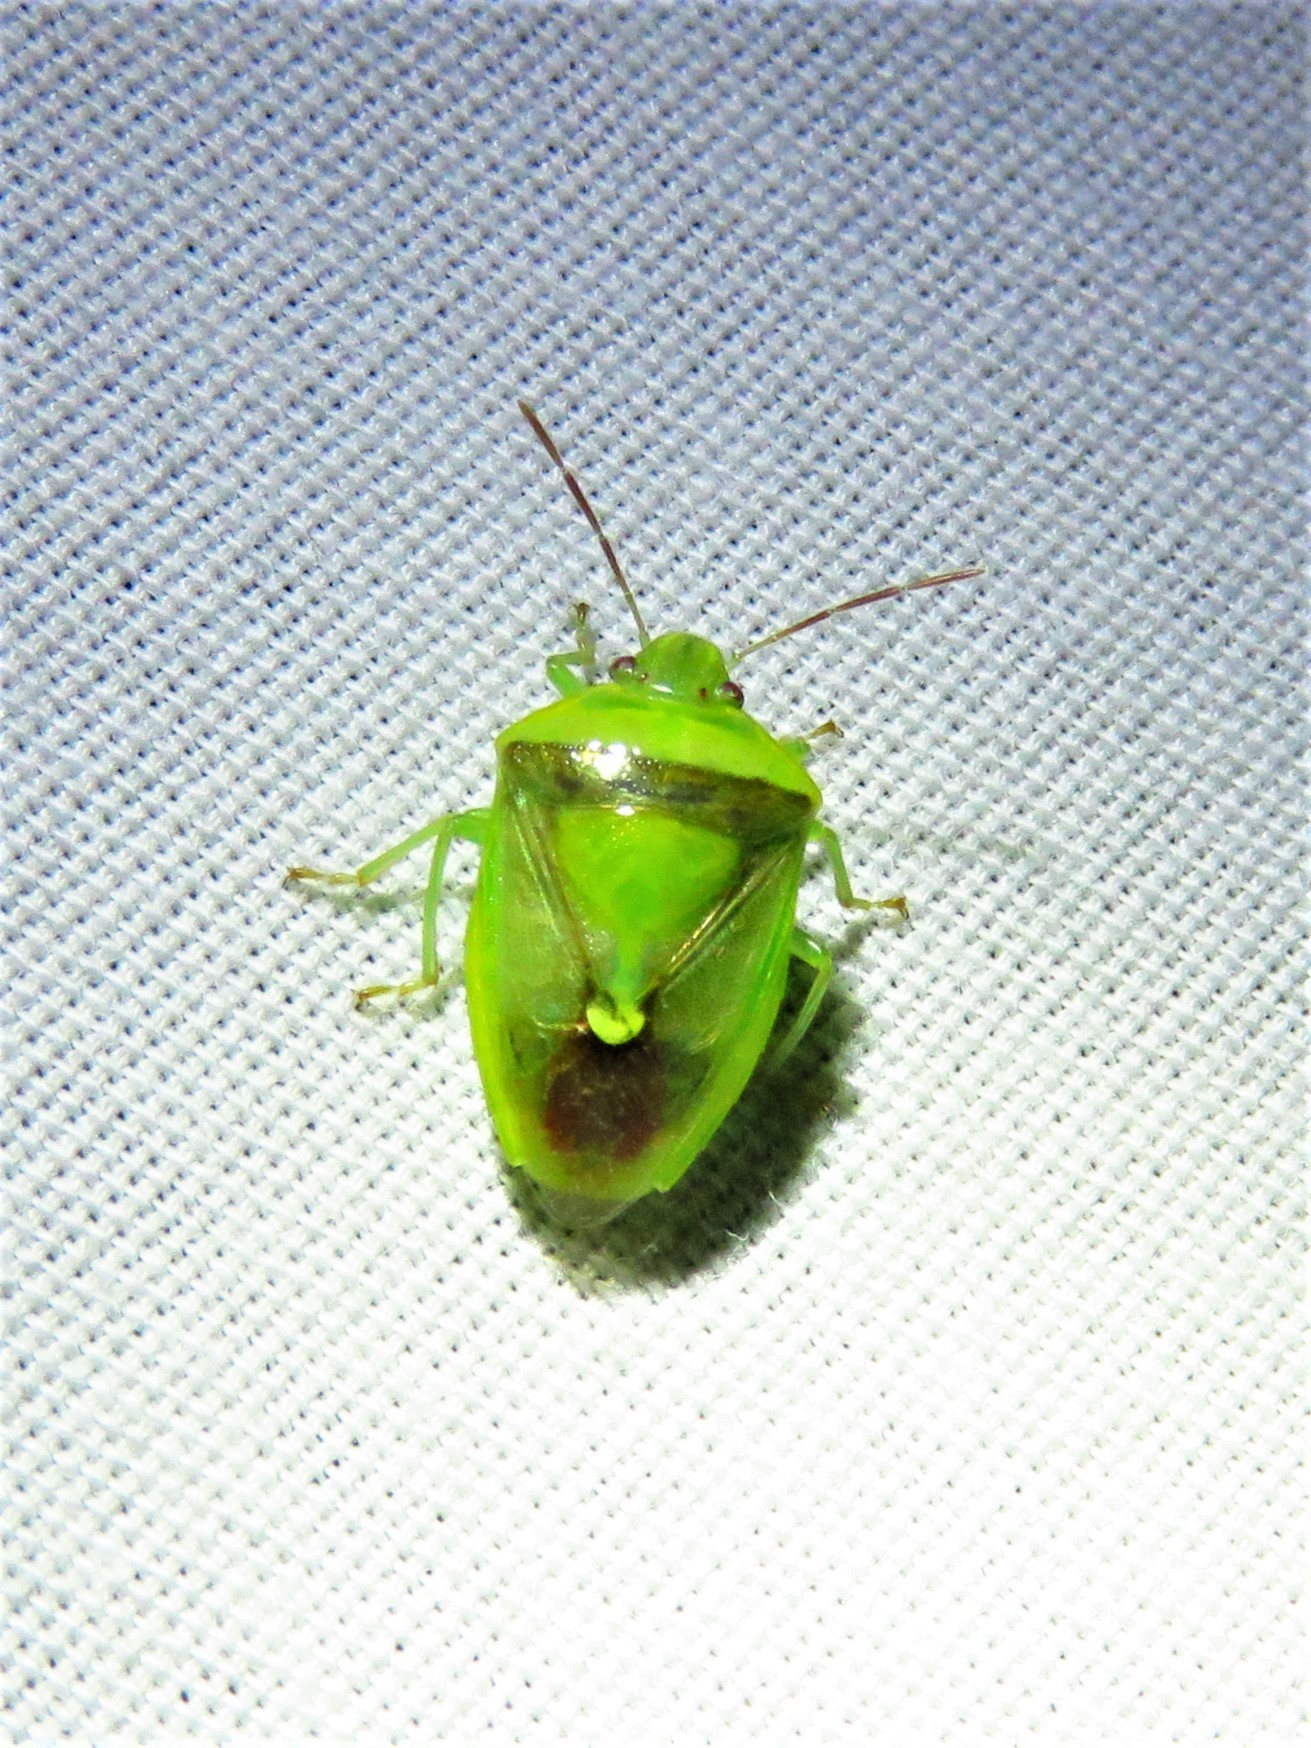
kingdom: Animalia
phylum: Arthropoda
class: Insecta
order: Hemiptera
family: Pentatomidae
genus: Banasa
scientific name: Banasa dimidiata
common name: Green burgundy stink bug
